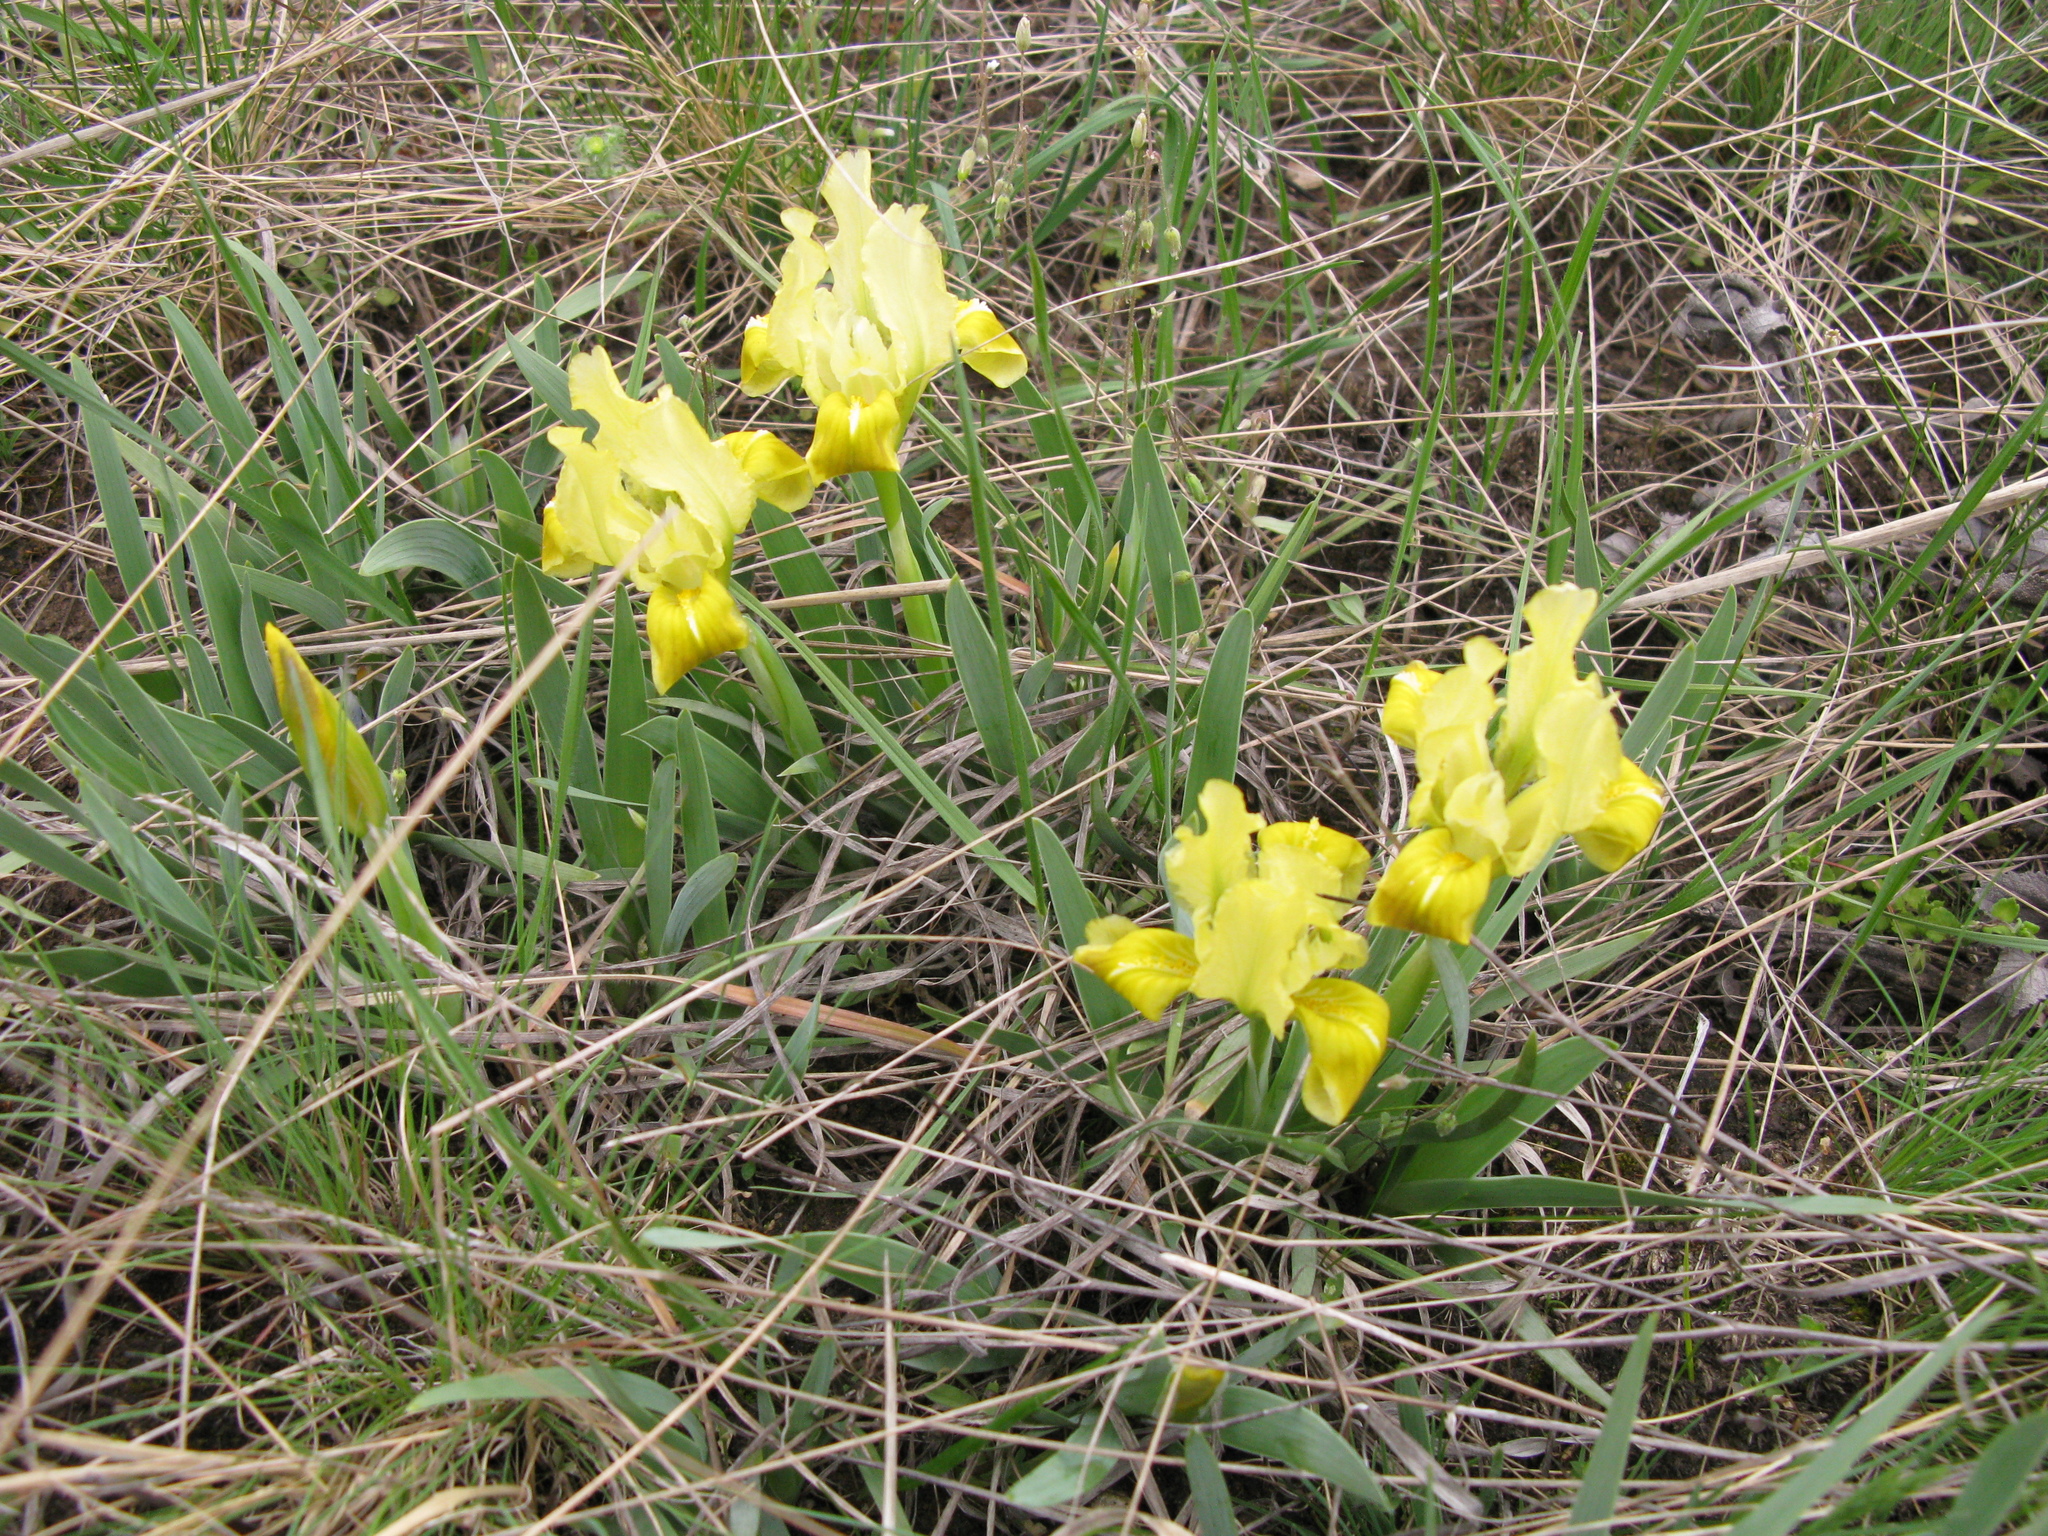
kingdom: Plantae
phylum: Tracheophyta
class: Liliopsida
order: Asparagales
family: Iridaceae
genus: Iris
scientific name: Iris pumila
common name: Dwarf iris
